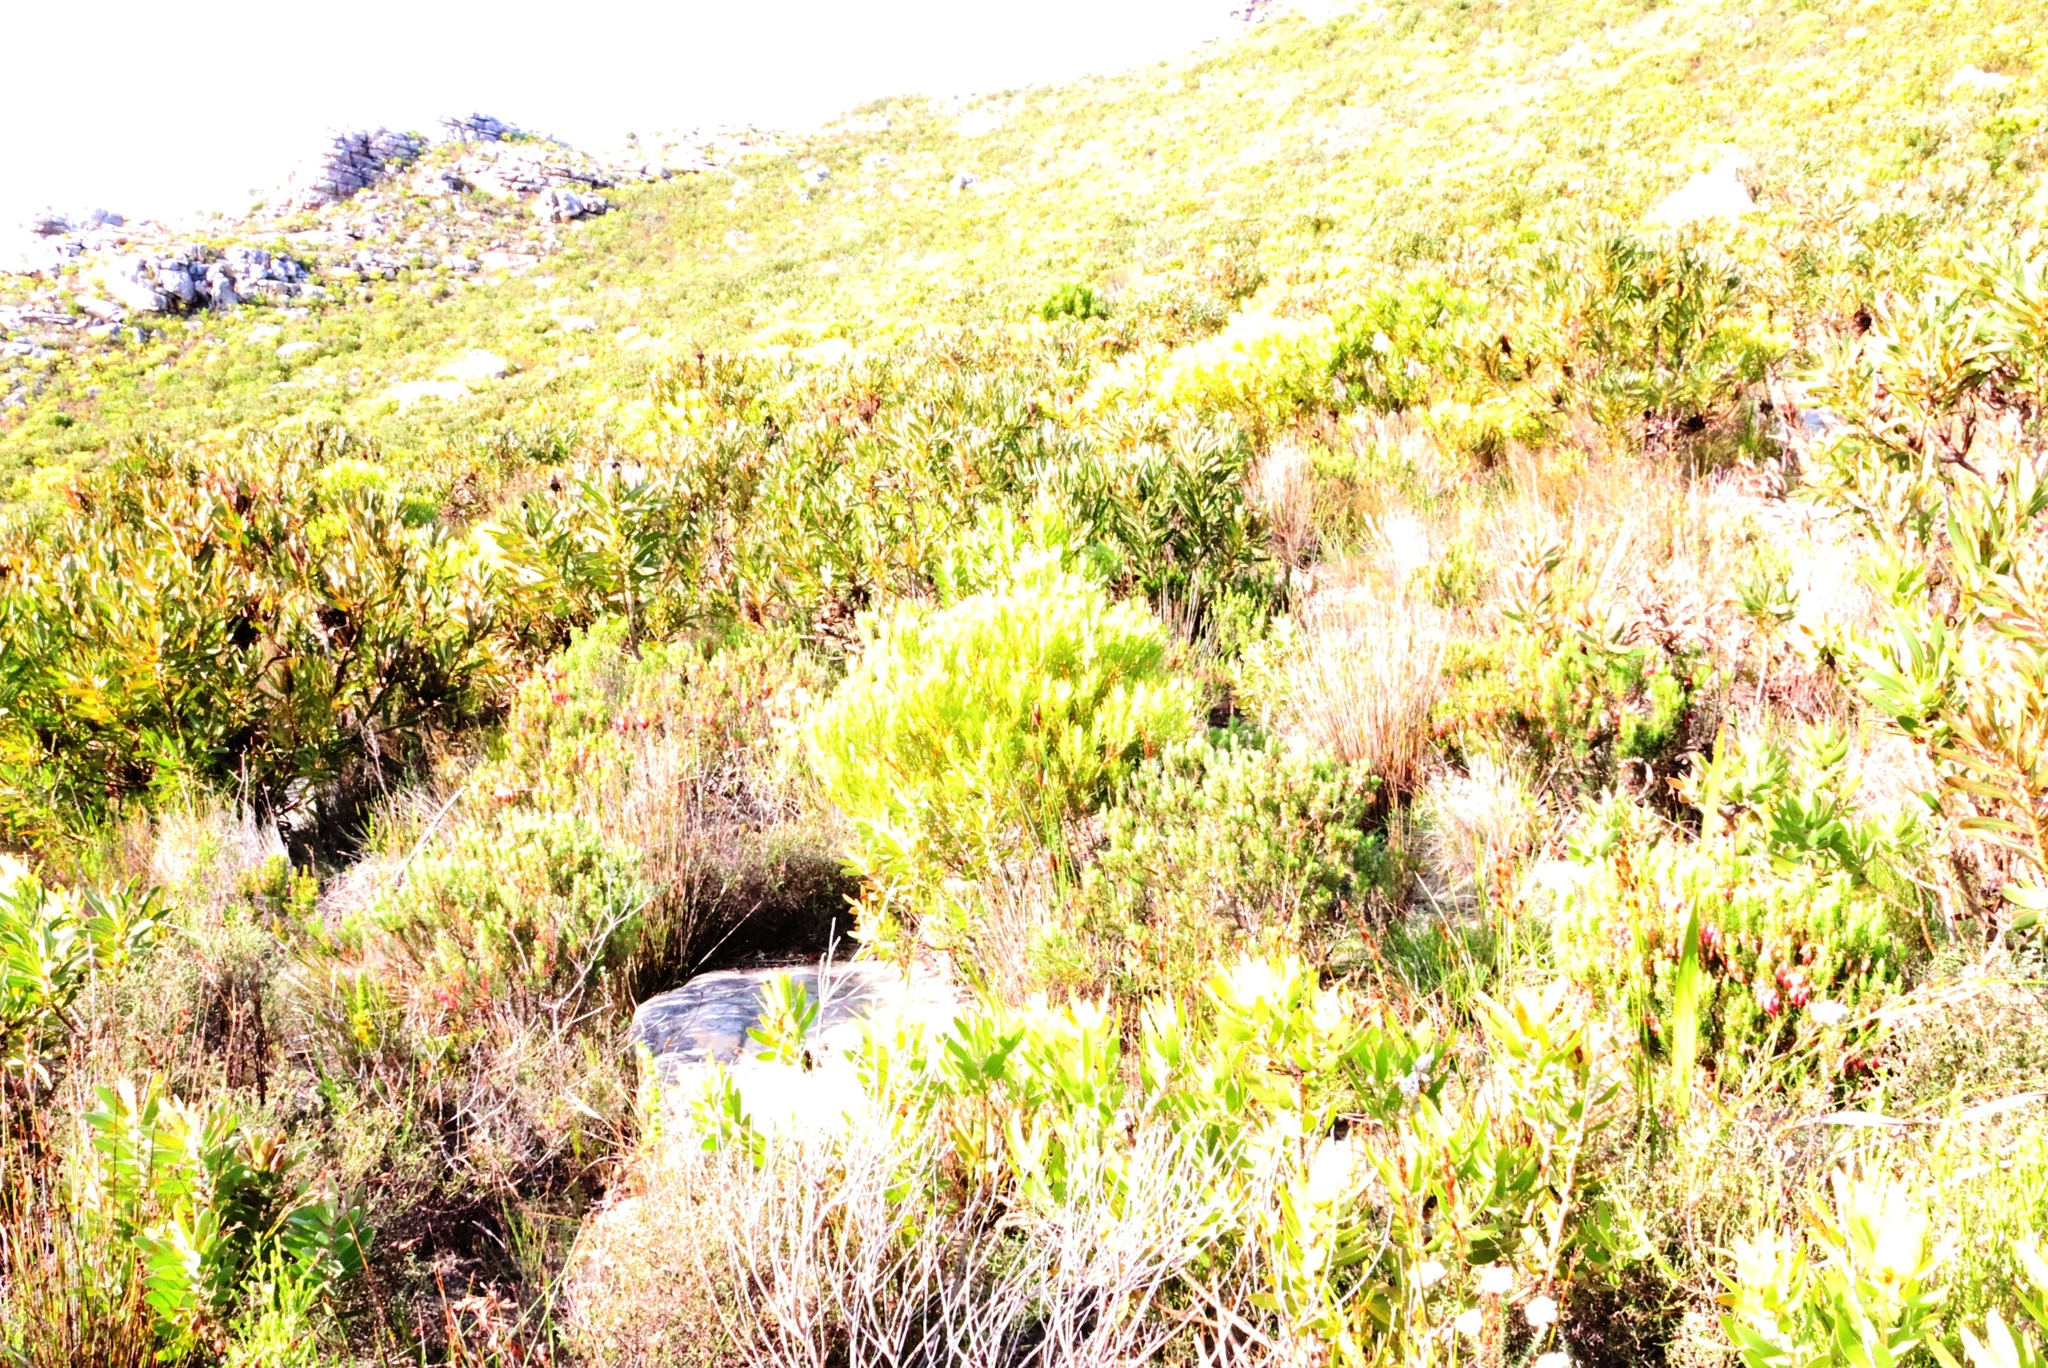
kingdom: Plantae
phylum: Tracheophyta
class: Magnoliopsida
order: Proteales
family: Proteaceae
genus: Leucadendron
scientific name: Leucadendron xanthoconus
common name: Sickle-leaf conebush
